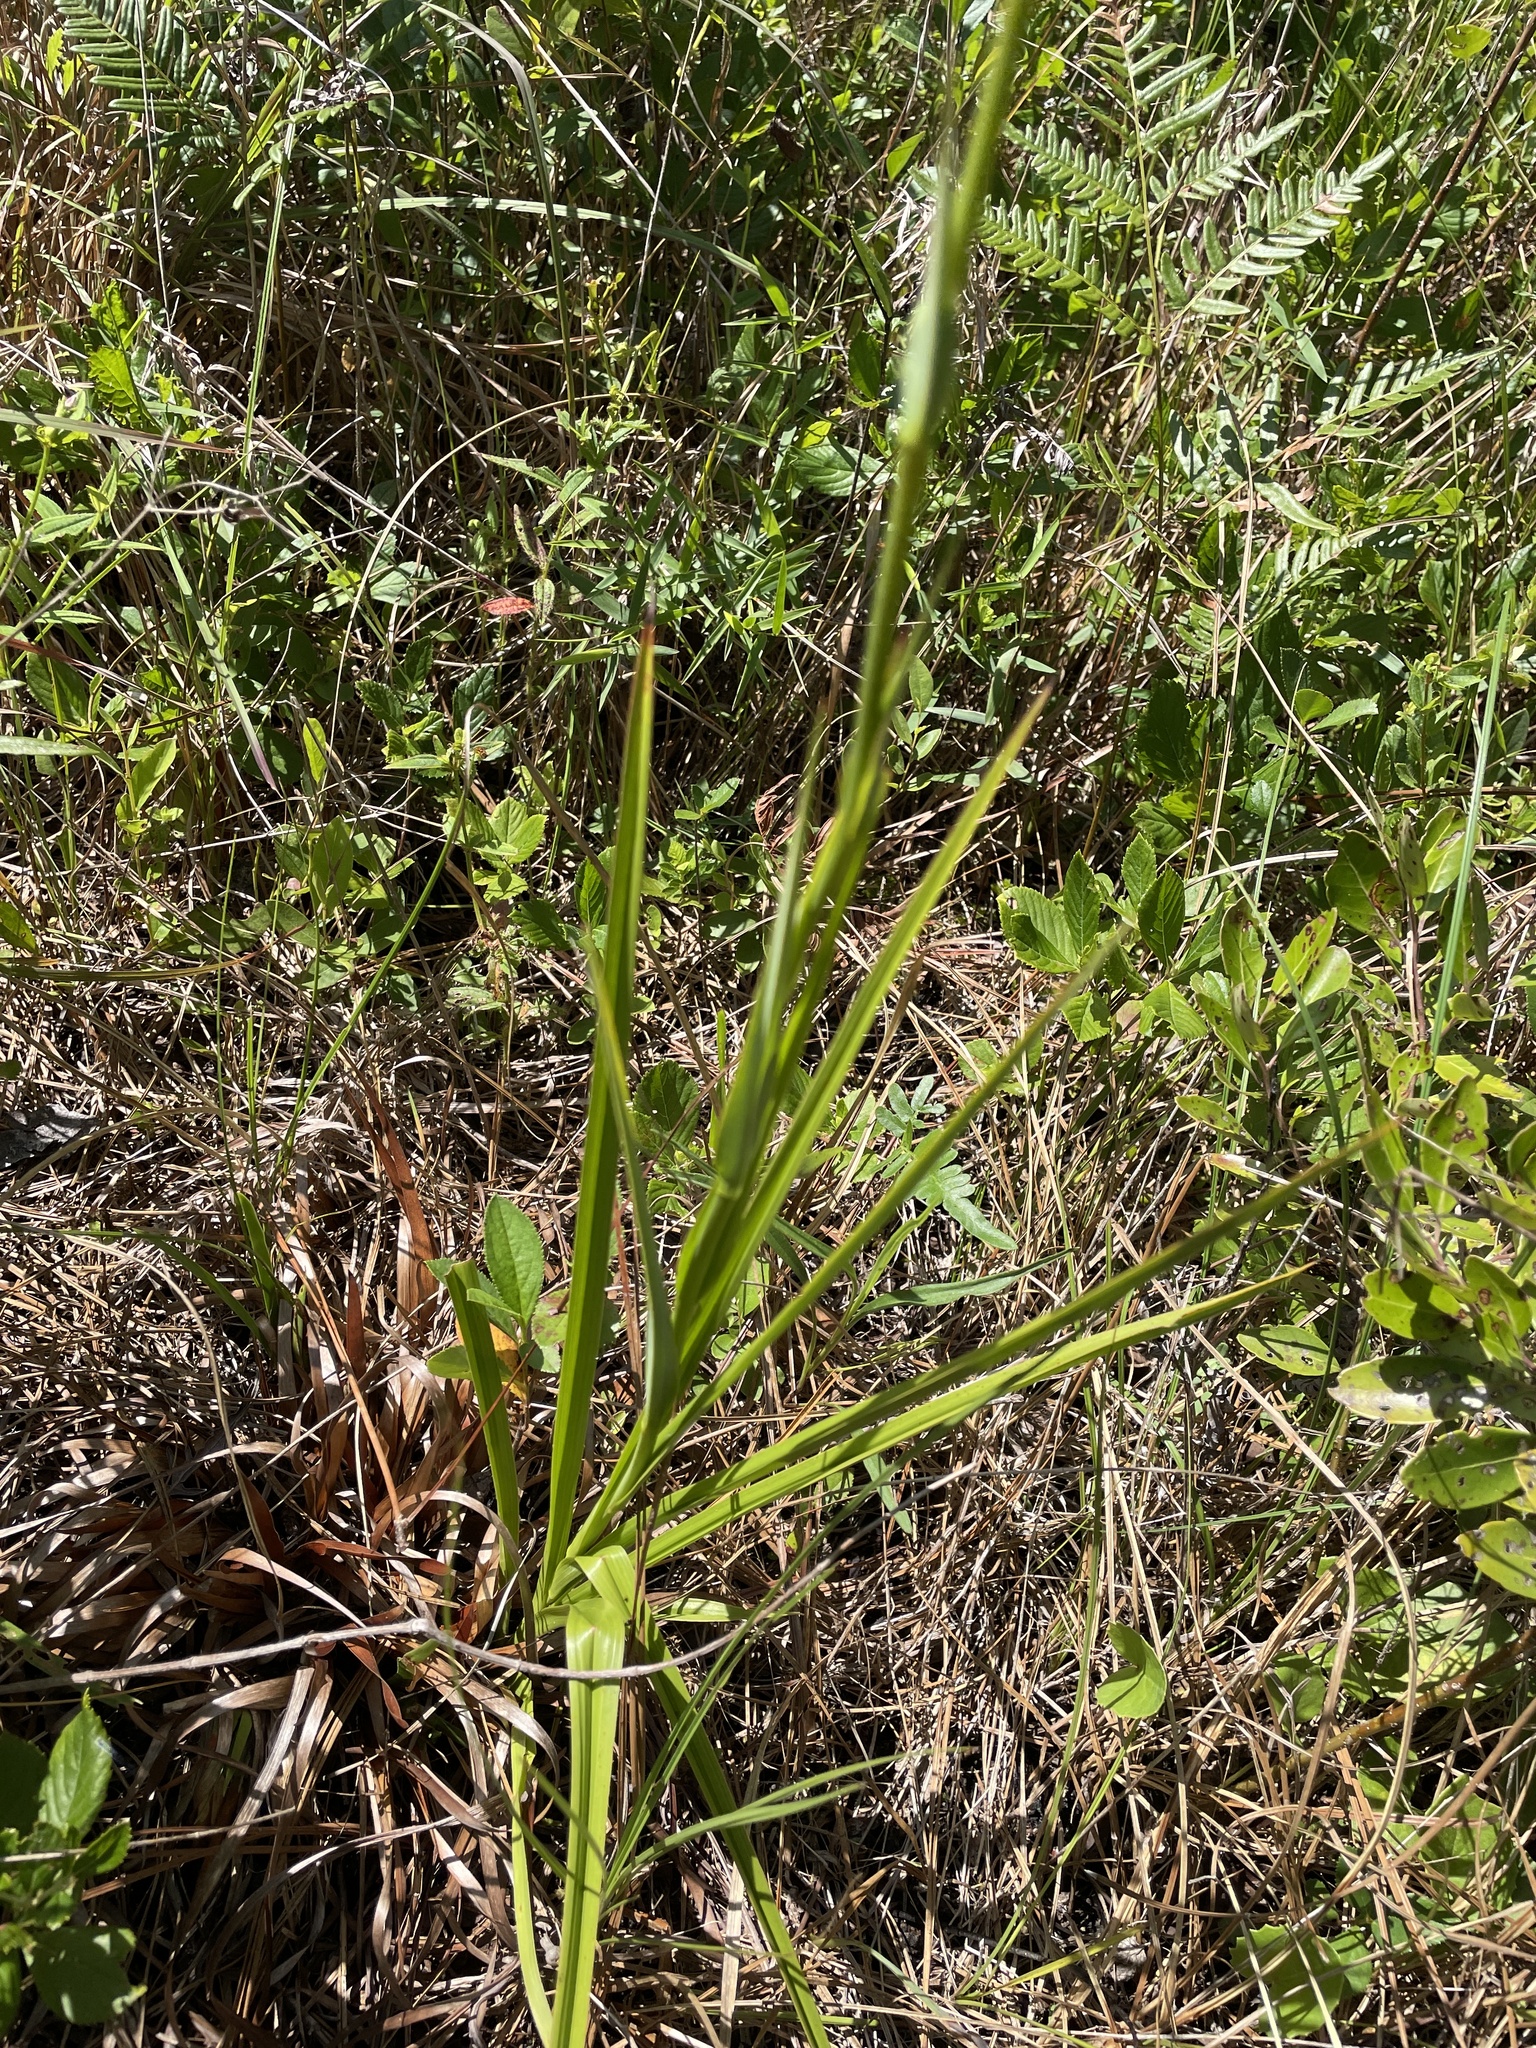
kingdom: Plantae
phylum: Tracheophyta
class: Liliopsida
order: Liliales
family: Melanthiaceae
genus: Zigadenus
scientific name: Zigadenus glaberrimus
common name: Sandbog death camas
